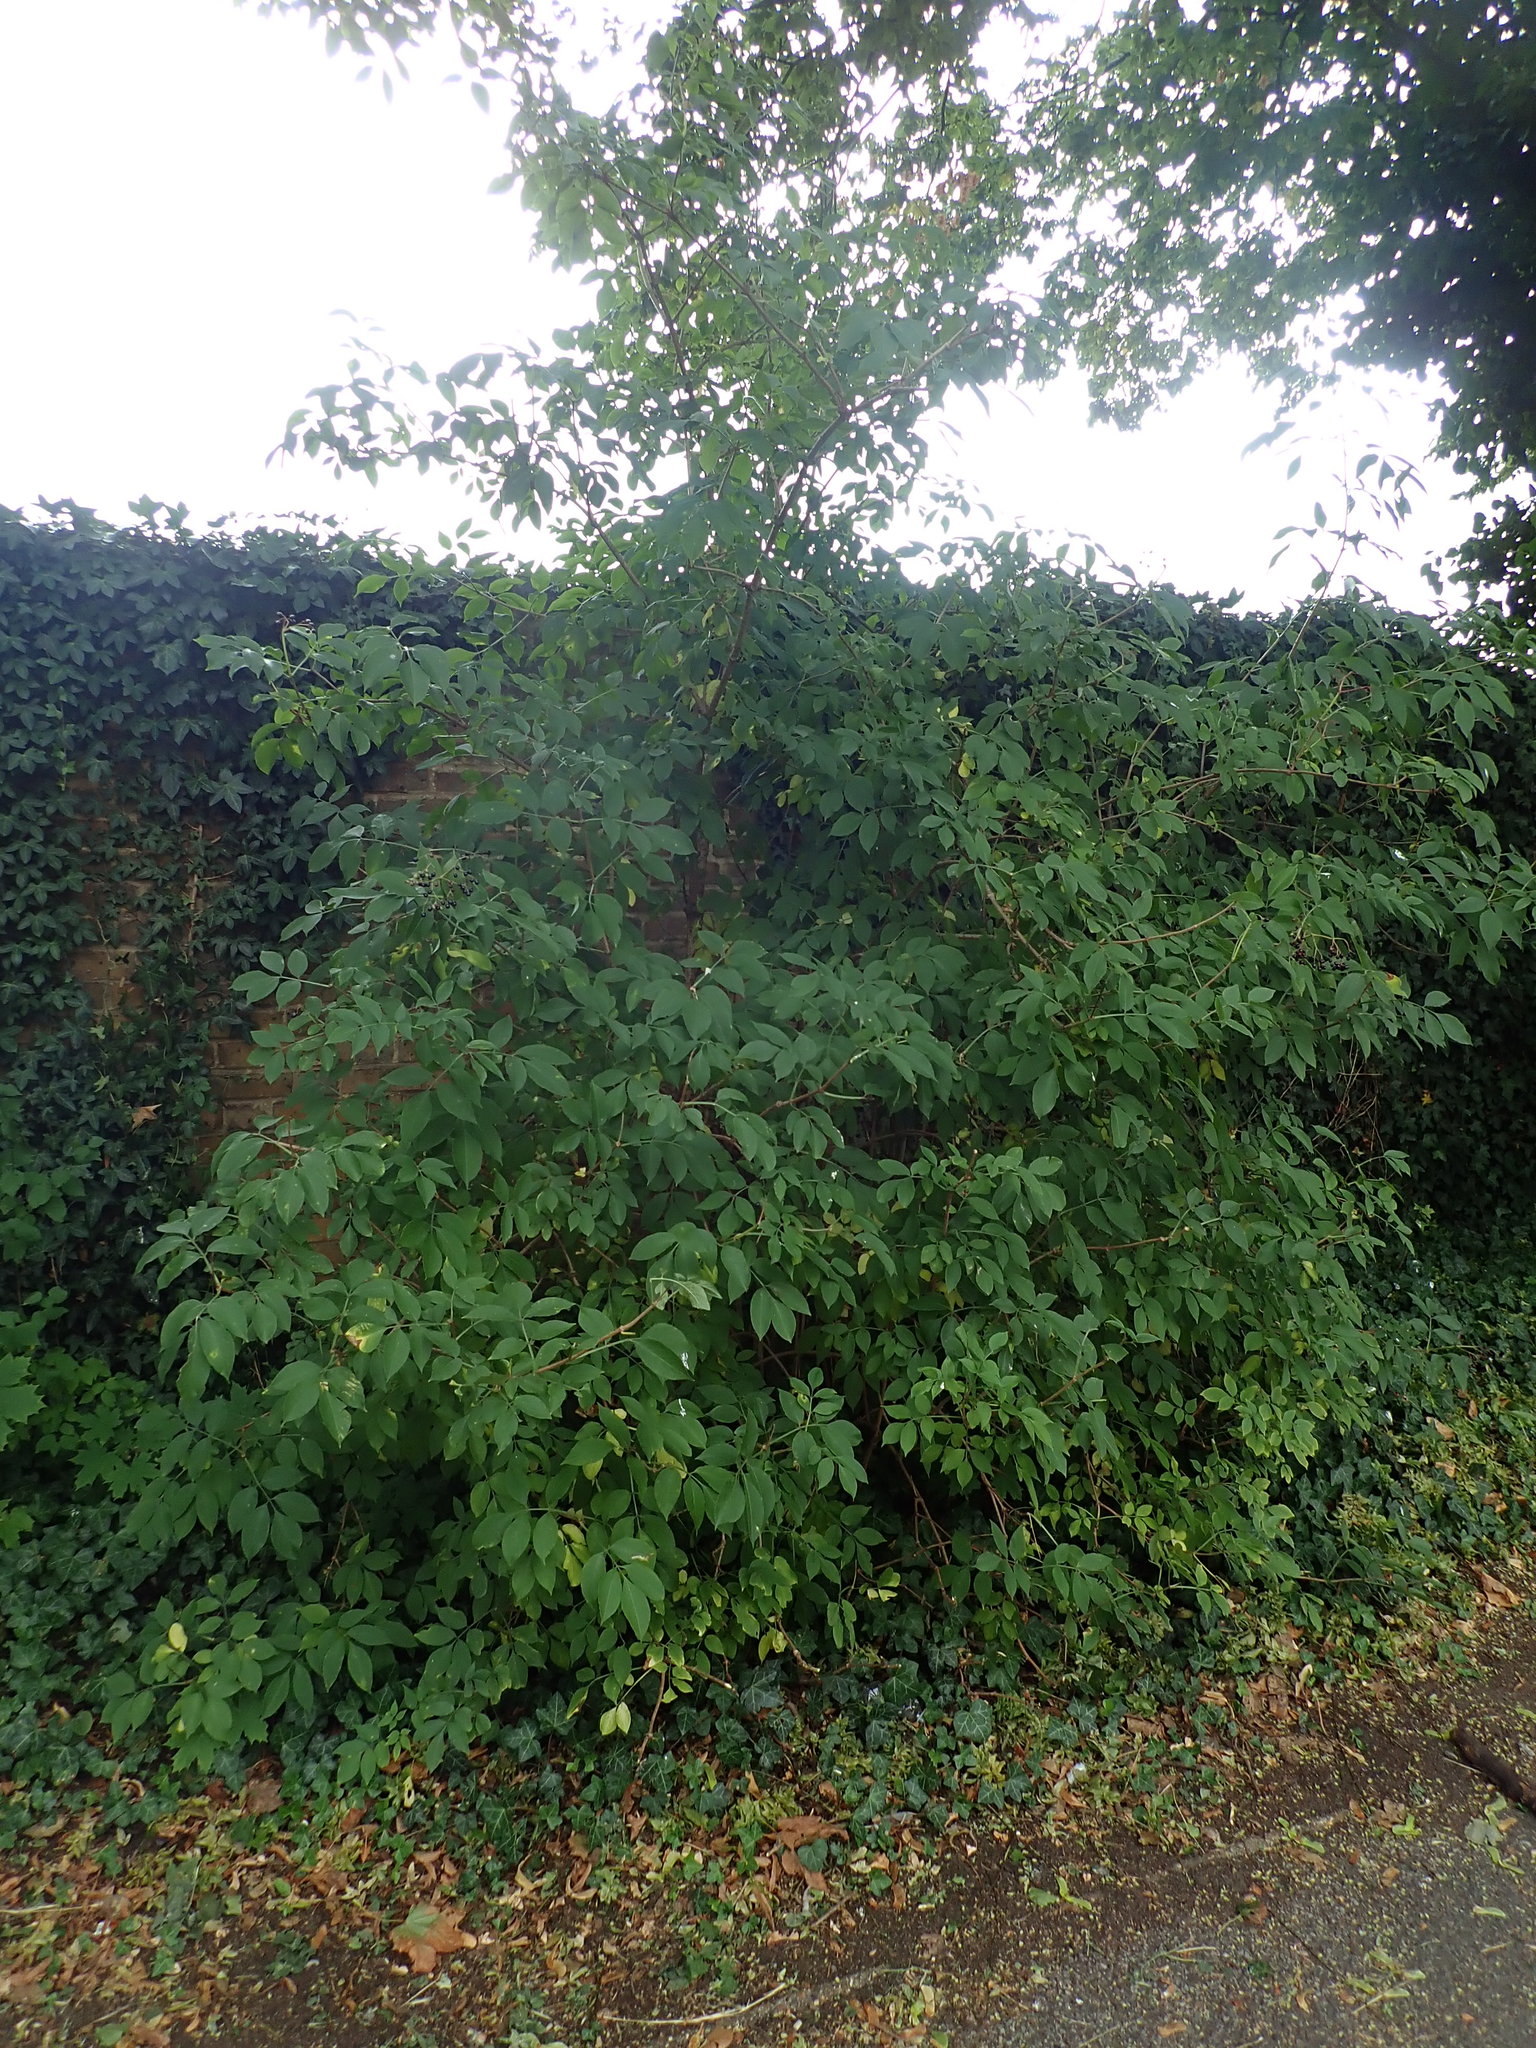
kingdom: Plantae
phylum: Tracheophyta
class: Magnoliopsida
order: Dipsacales
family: Viburnaceae
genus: Sambucus
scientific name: Sambucus nigra
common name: Elder
